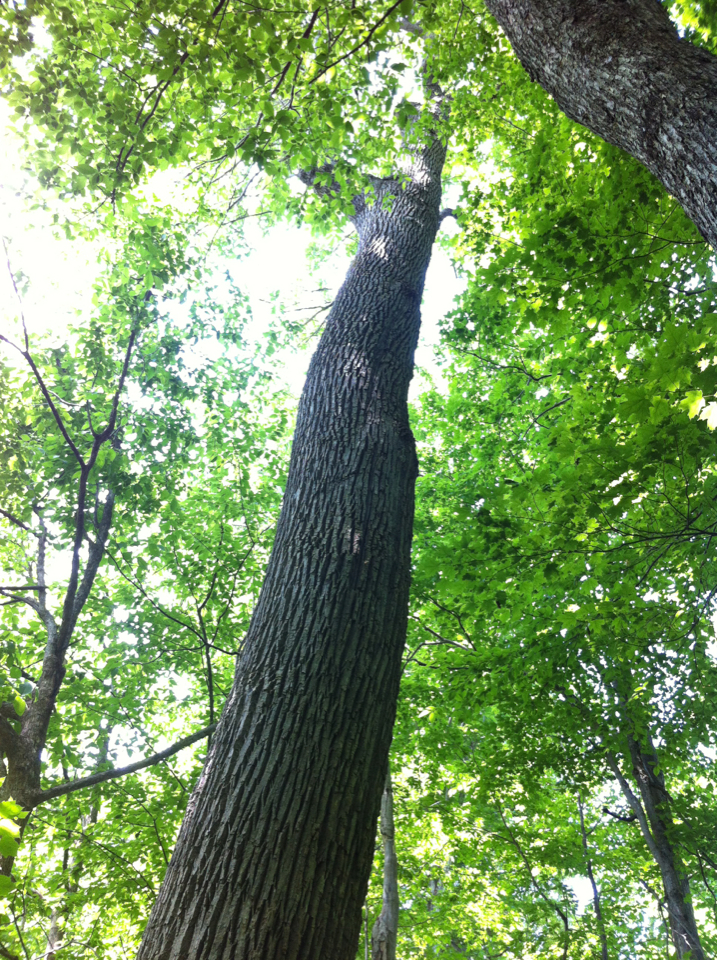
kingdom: Plantae
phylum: Tracheophyta
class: Magnoliopsida
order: Lamiales
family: Oleaceae
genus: Fraxinus
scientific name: Fraxinus americana
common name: White ash
